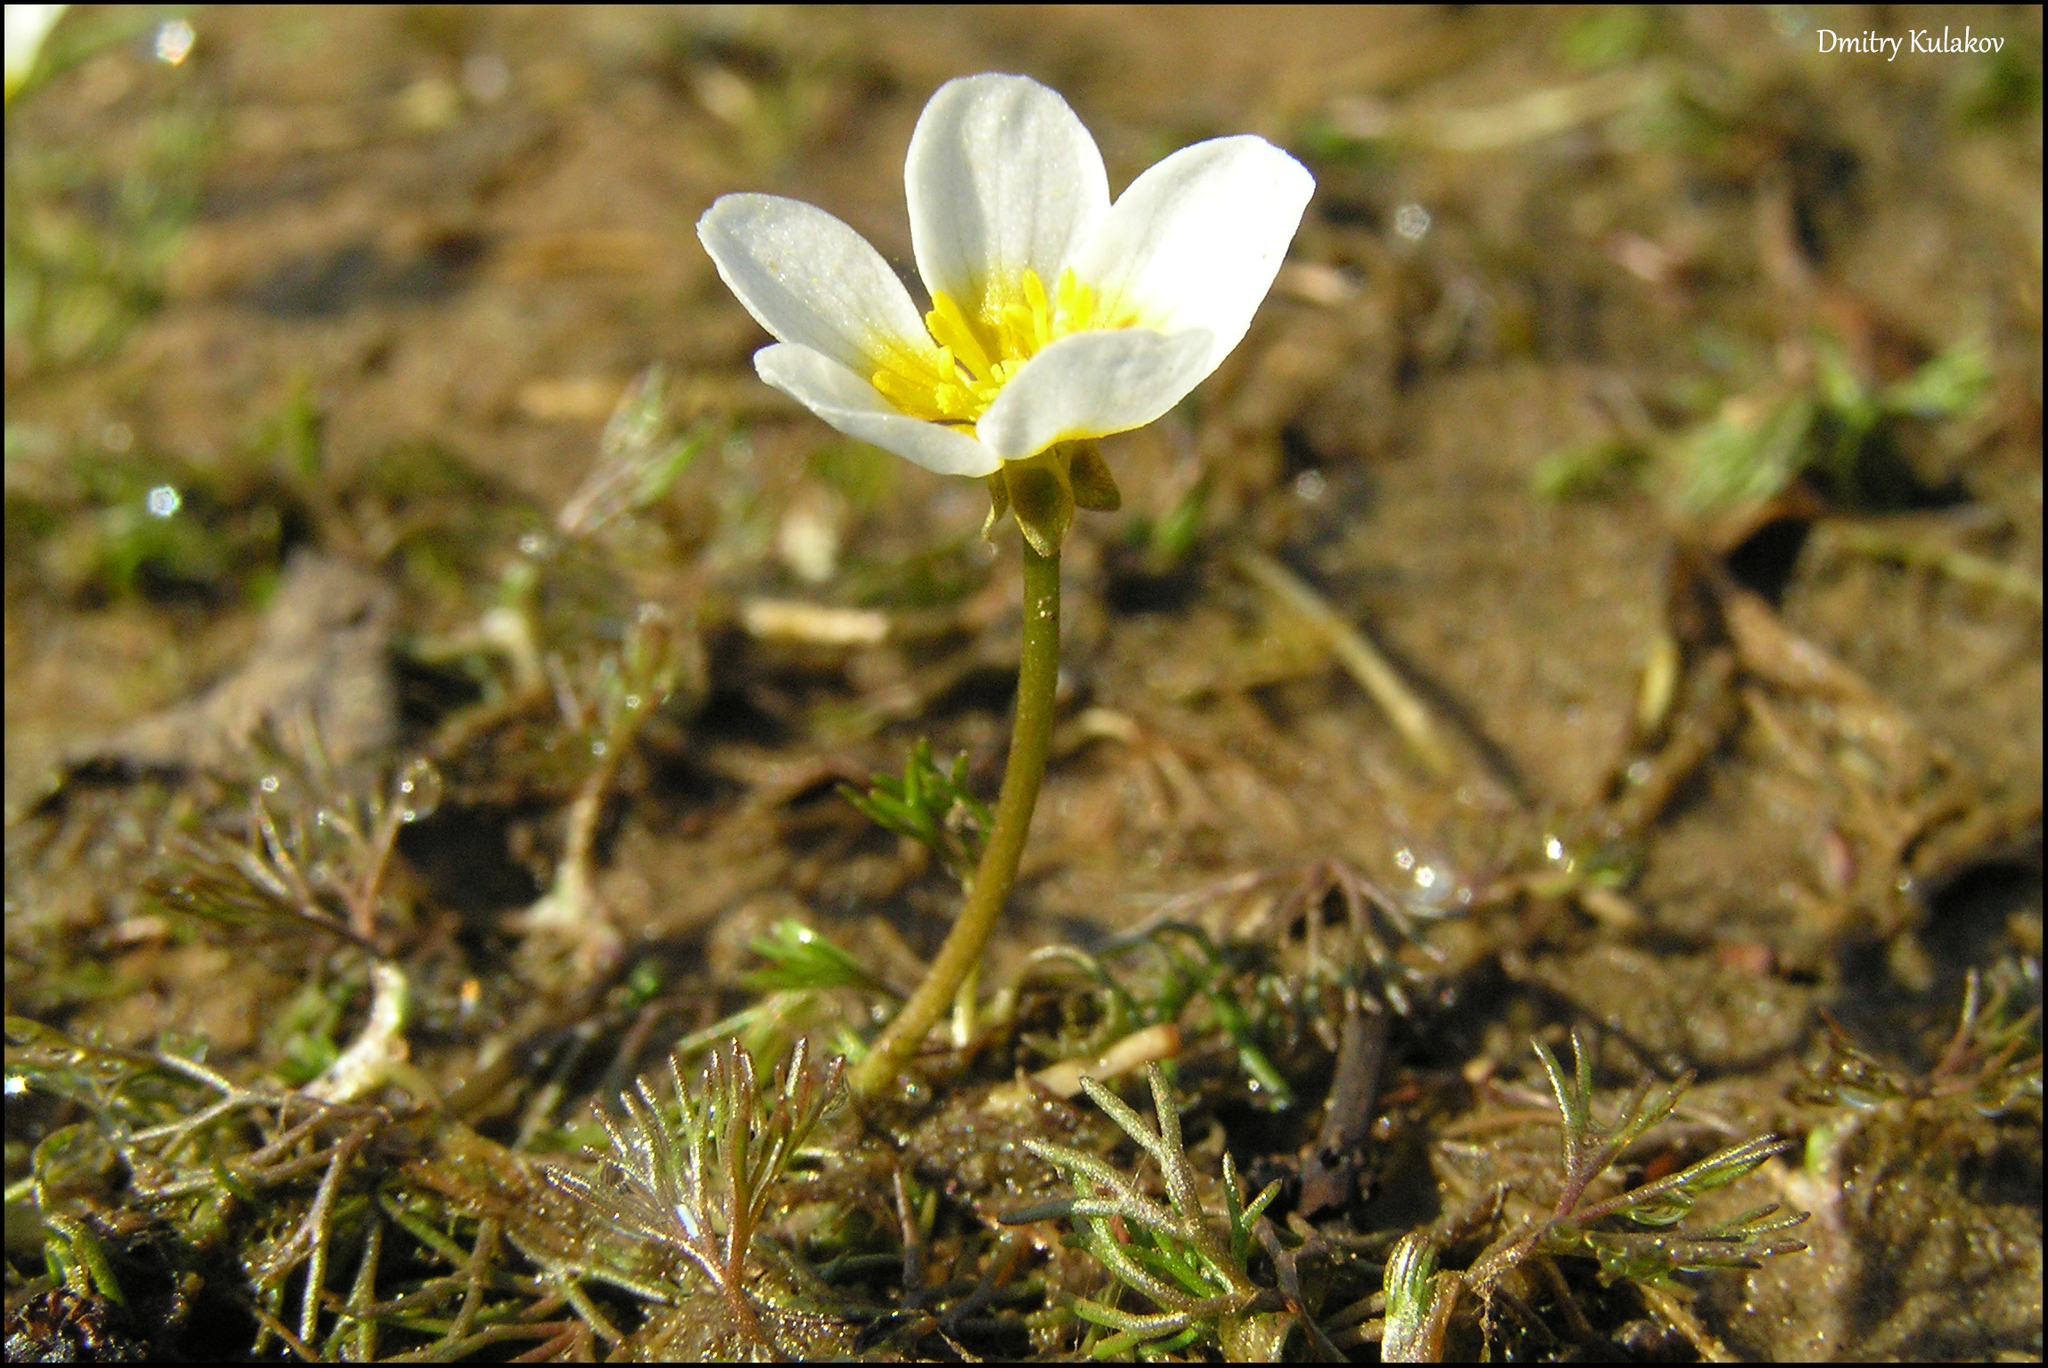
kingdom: Plantae
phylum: Tracheophyta
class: Magnoliopsida
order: Ranunculales
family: Ranunculaceae
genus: Ranunculus
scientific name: Ranunculus aquatilis
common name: Common water-crowfoot
